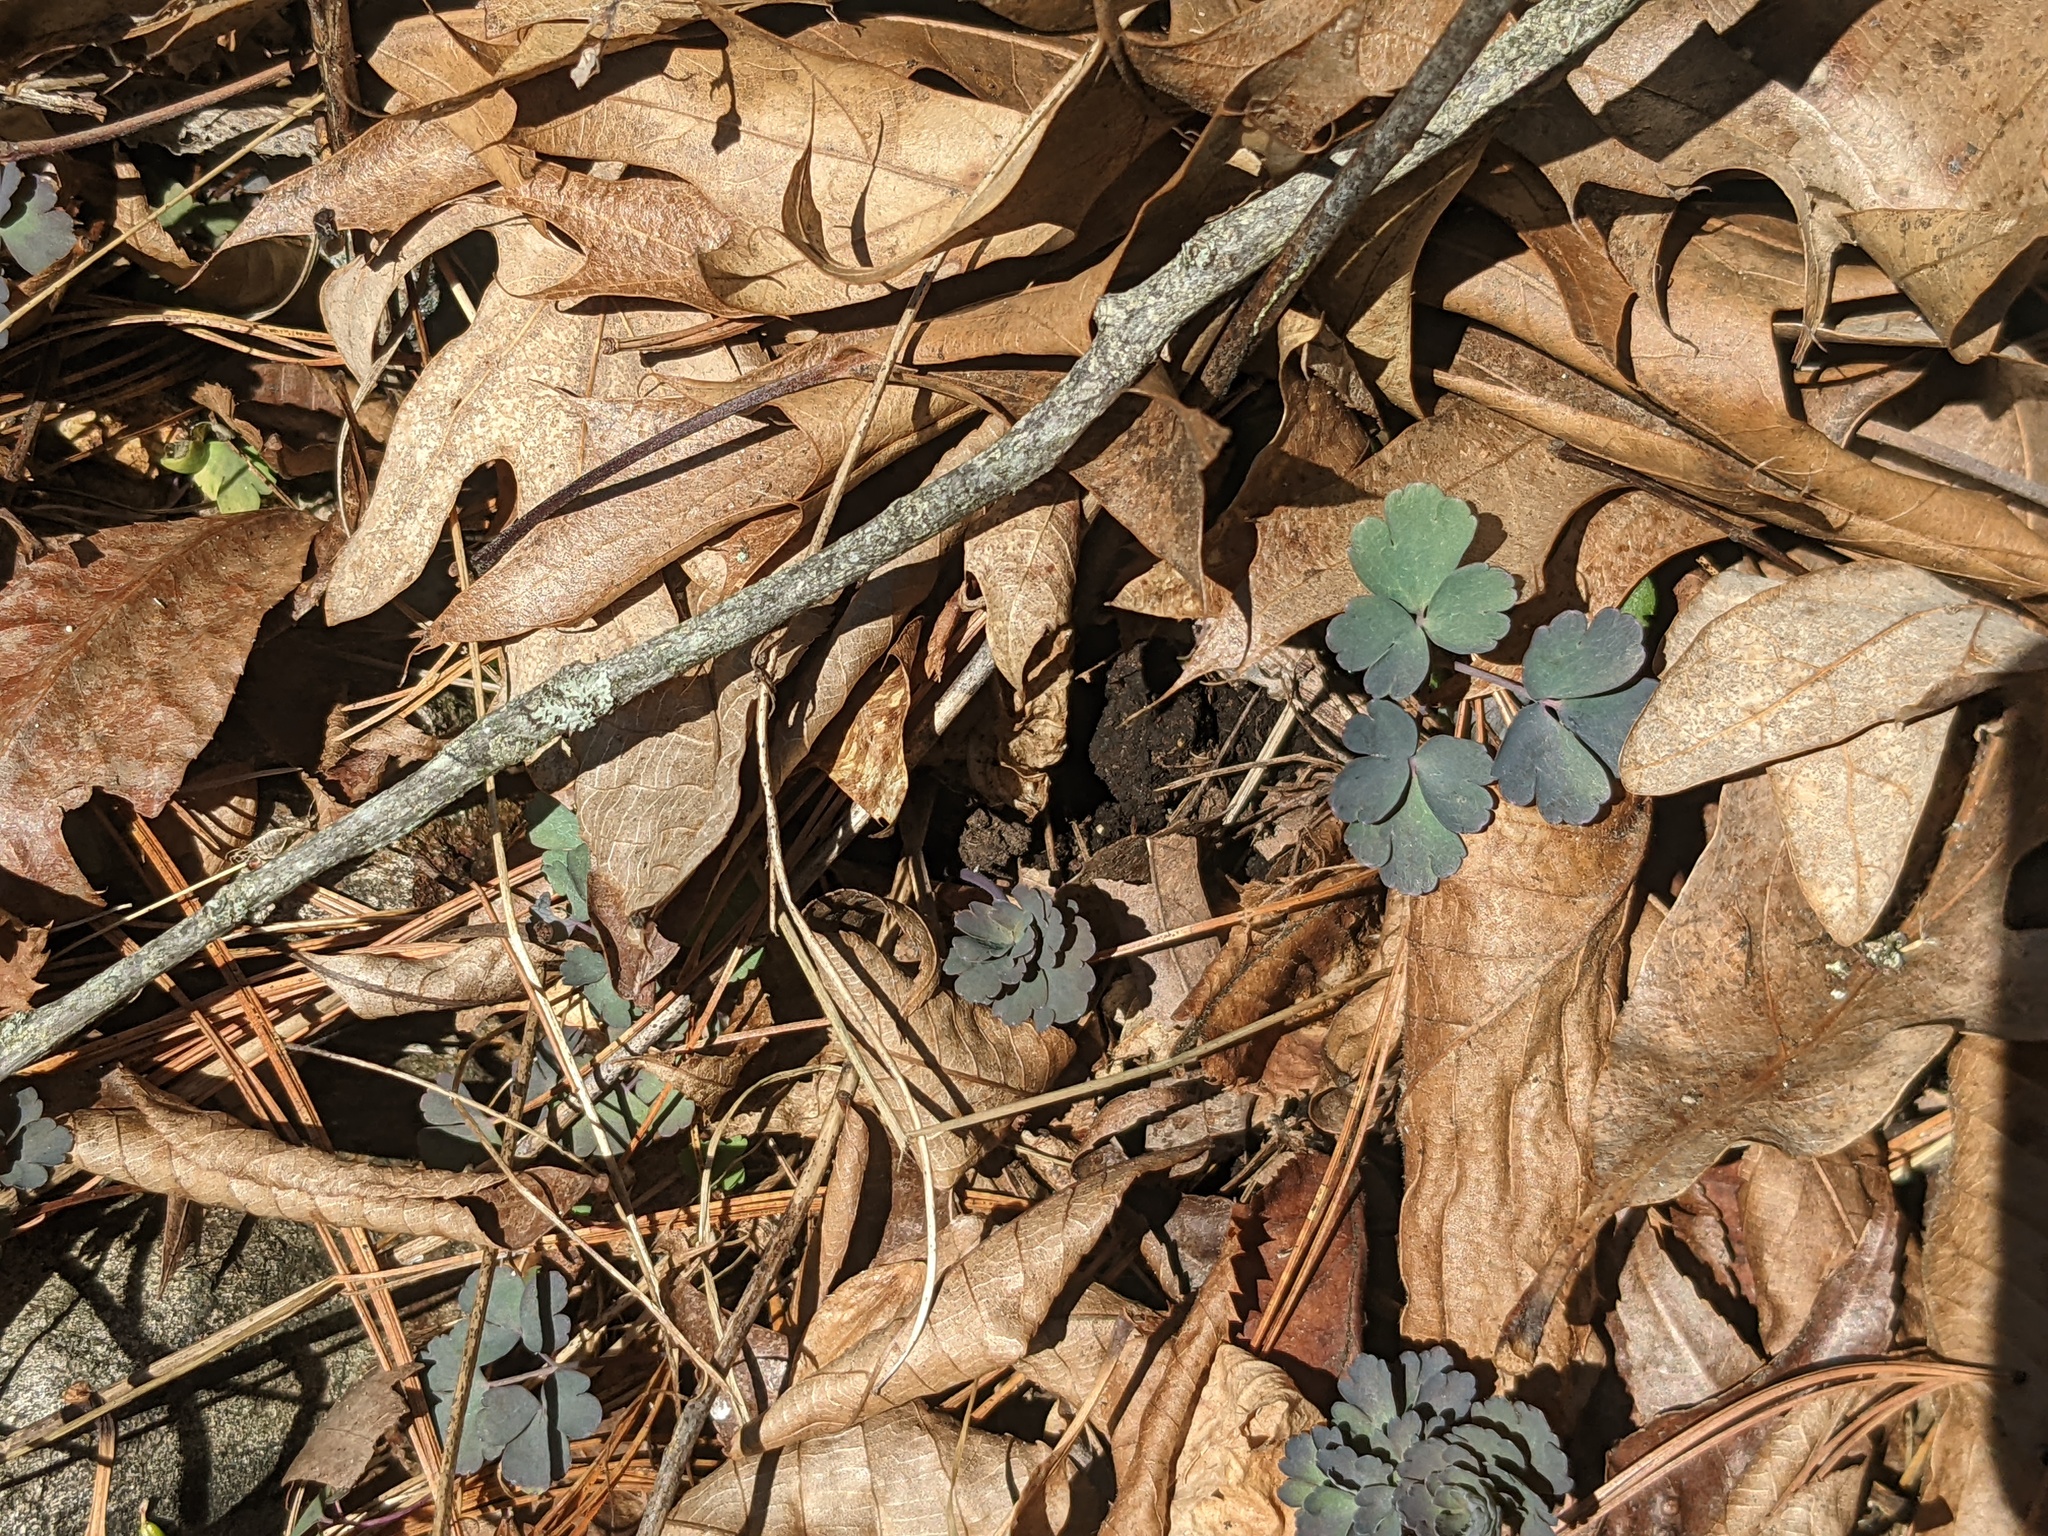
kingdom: Plantae
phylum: Tracheophyta
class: Magnoliopsida
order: Ranunculales
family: Ranunculaceae
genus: Aquilegia
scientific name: Aquilegia canadensis
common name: American columbine
